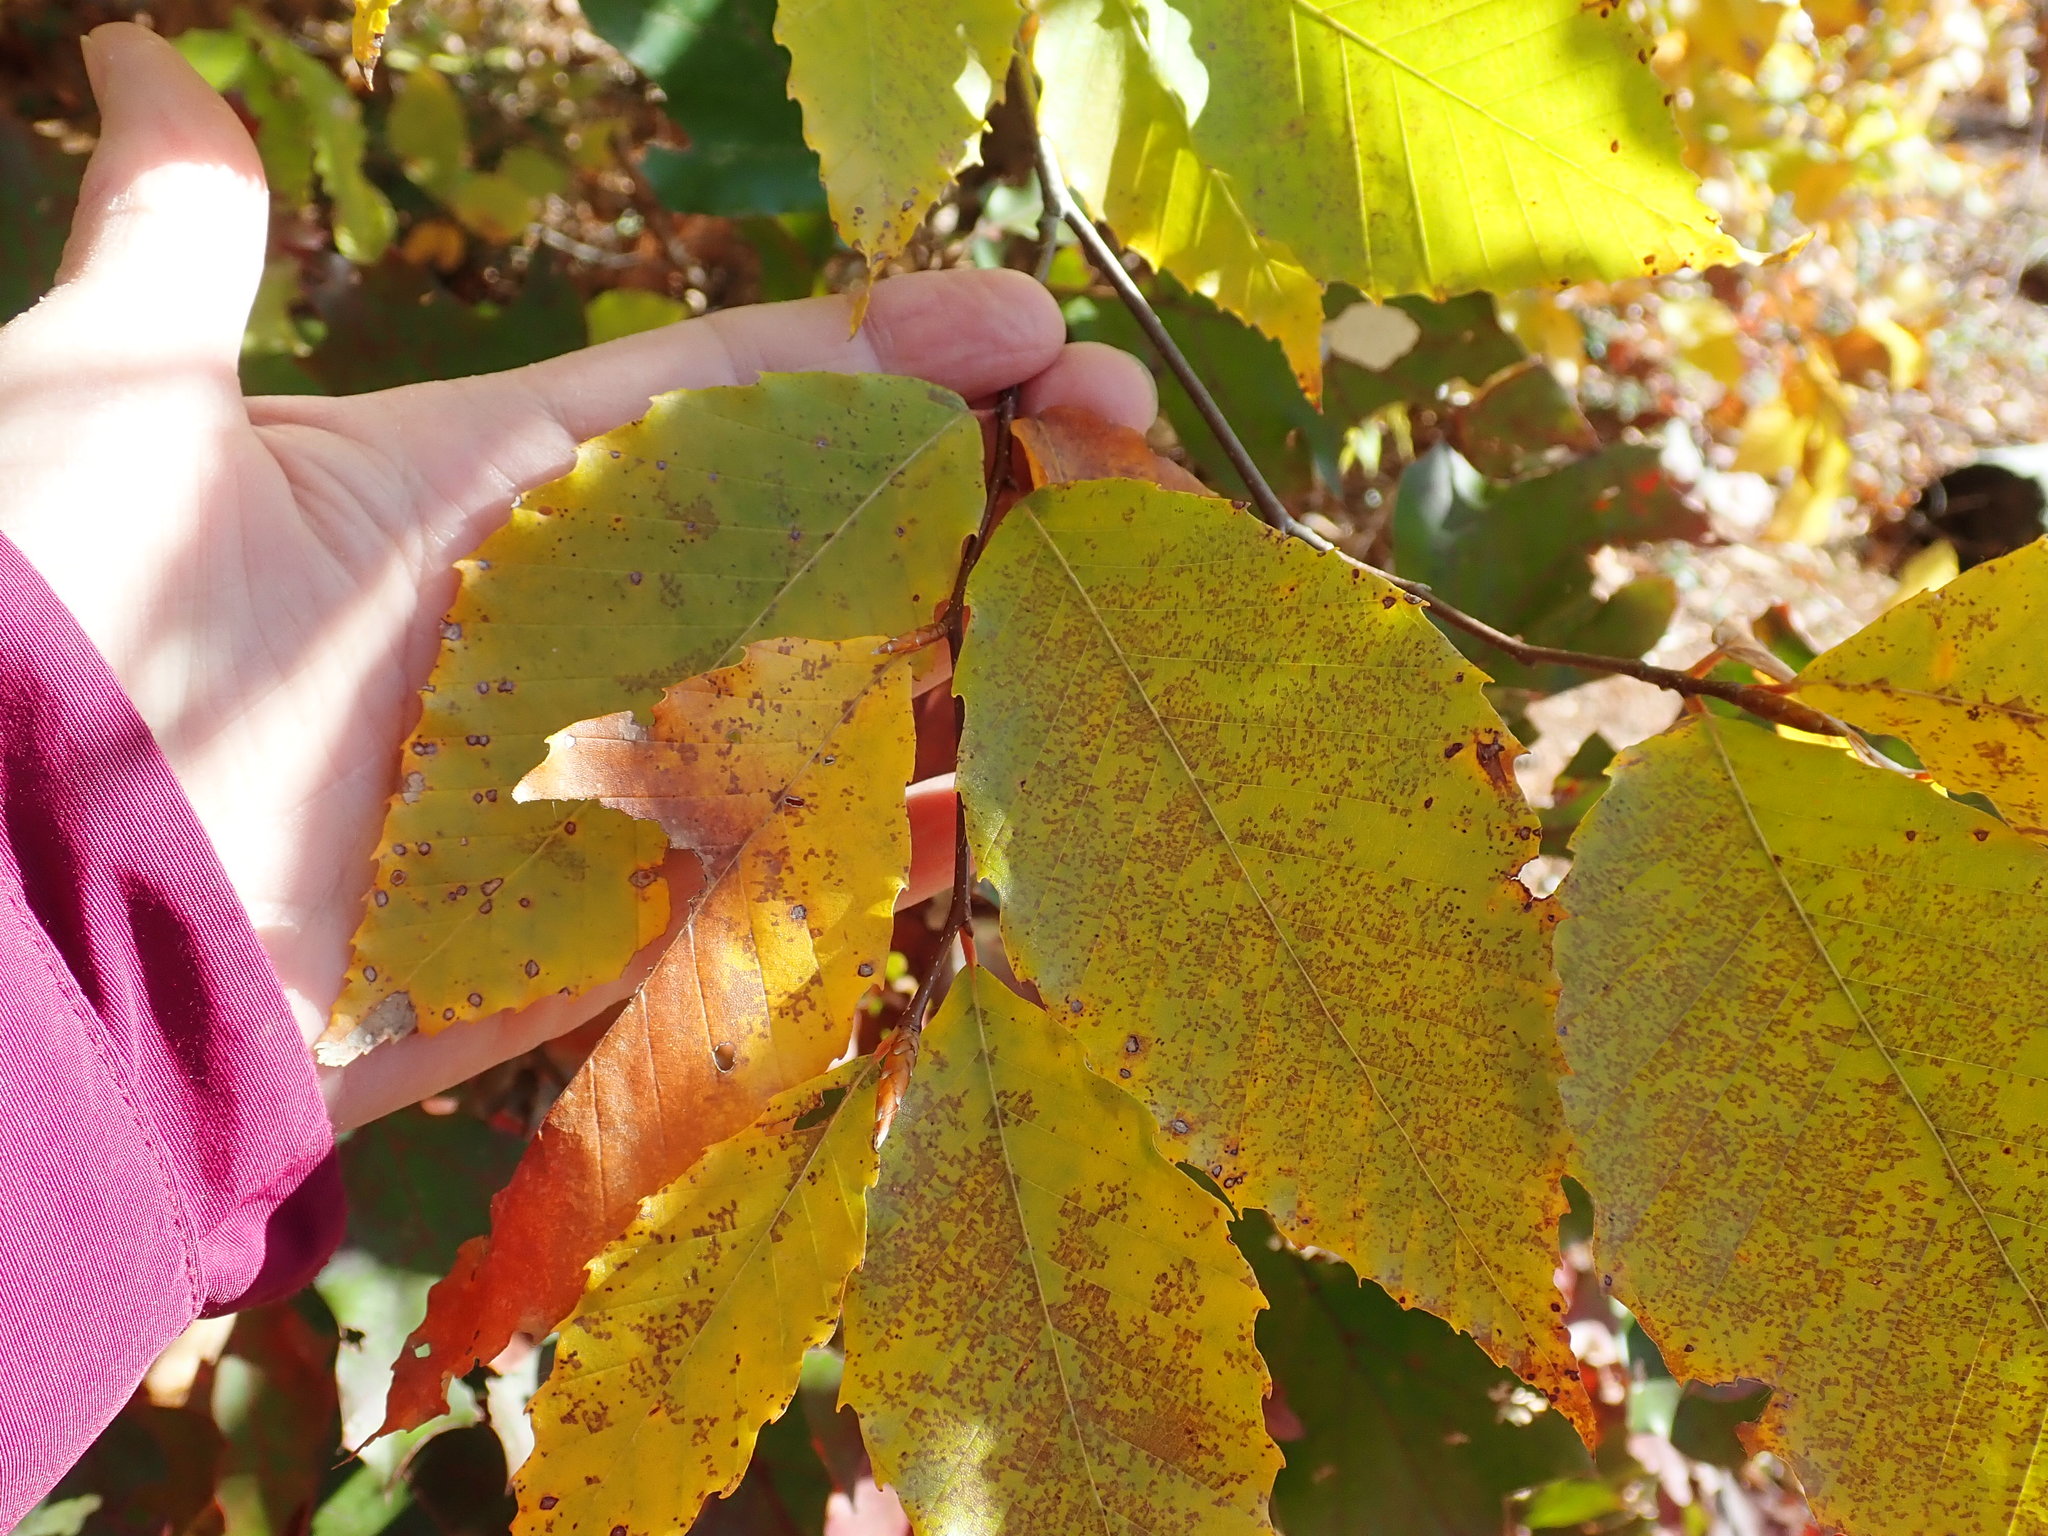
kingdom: Plantae
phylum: Tracheophyta
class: Magnoliopsida
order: Fagales
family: Fagaceae
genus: Fagus
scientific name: Fagus grandifolia
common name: American beech
